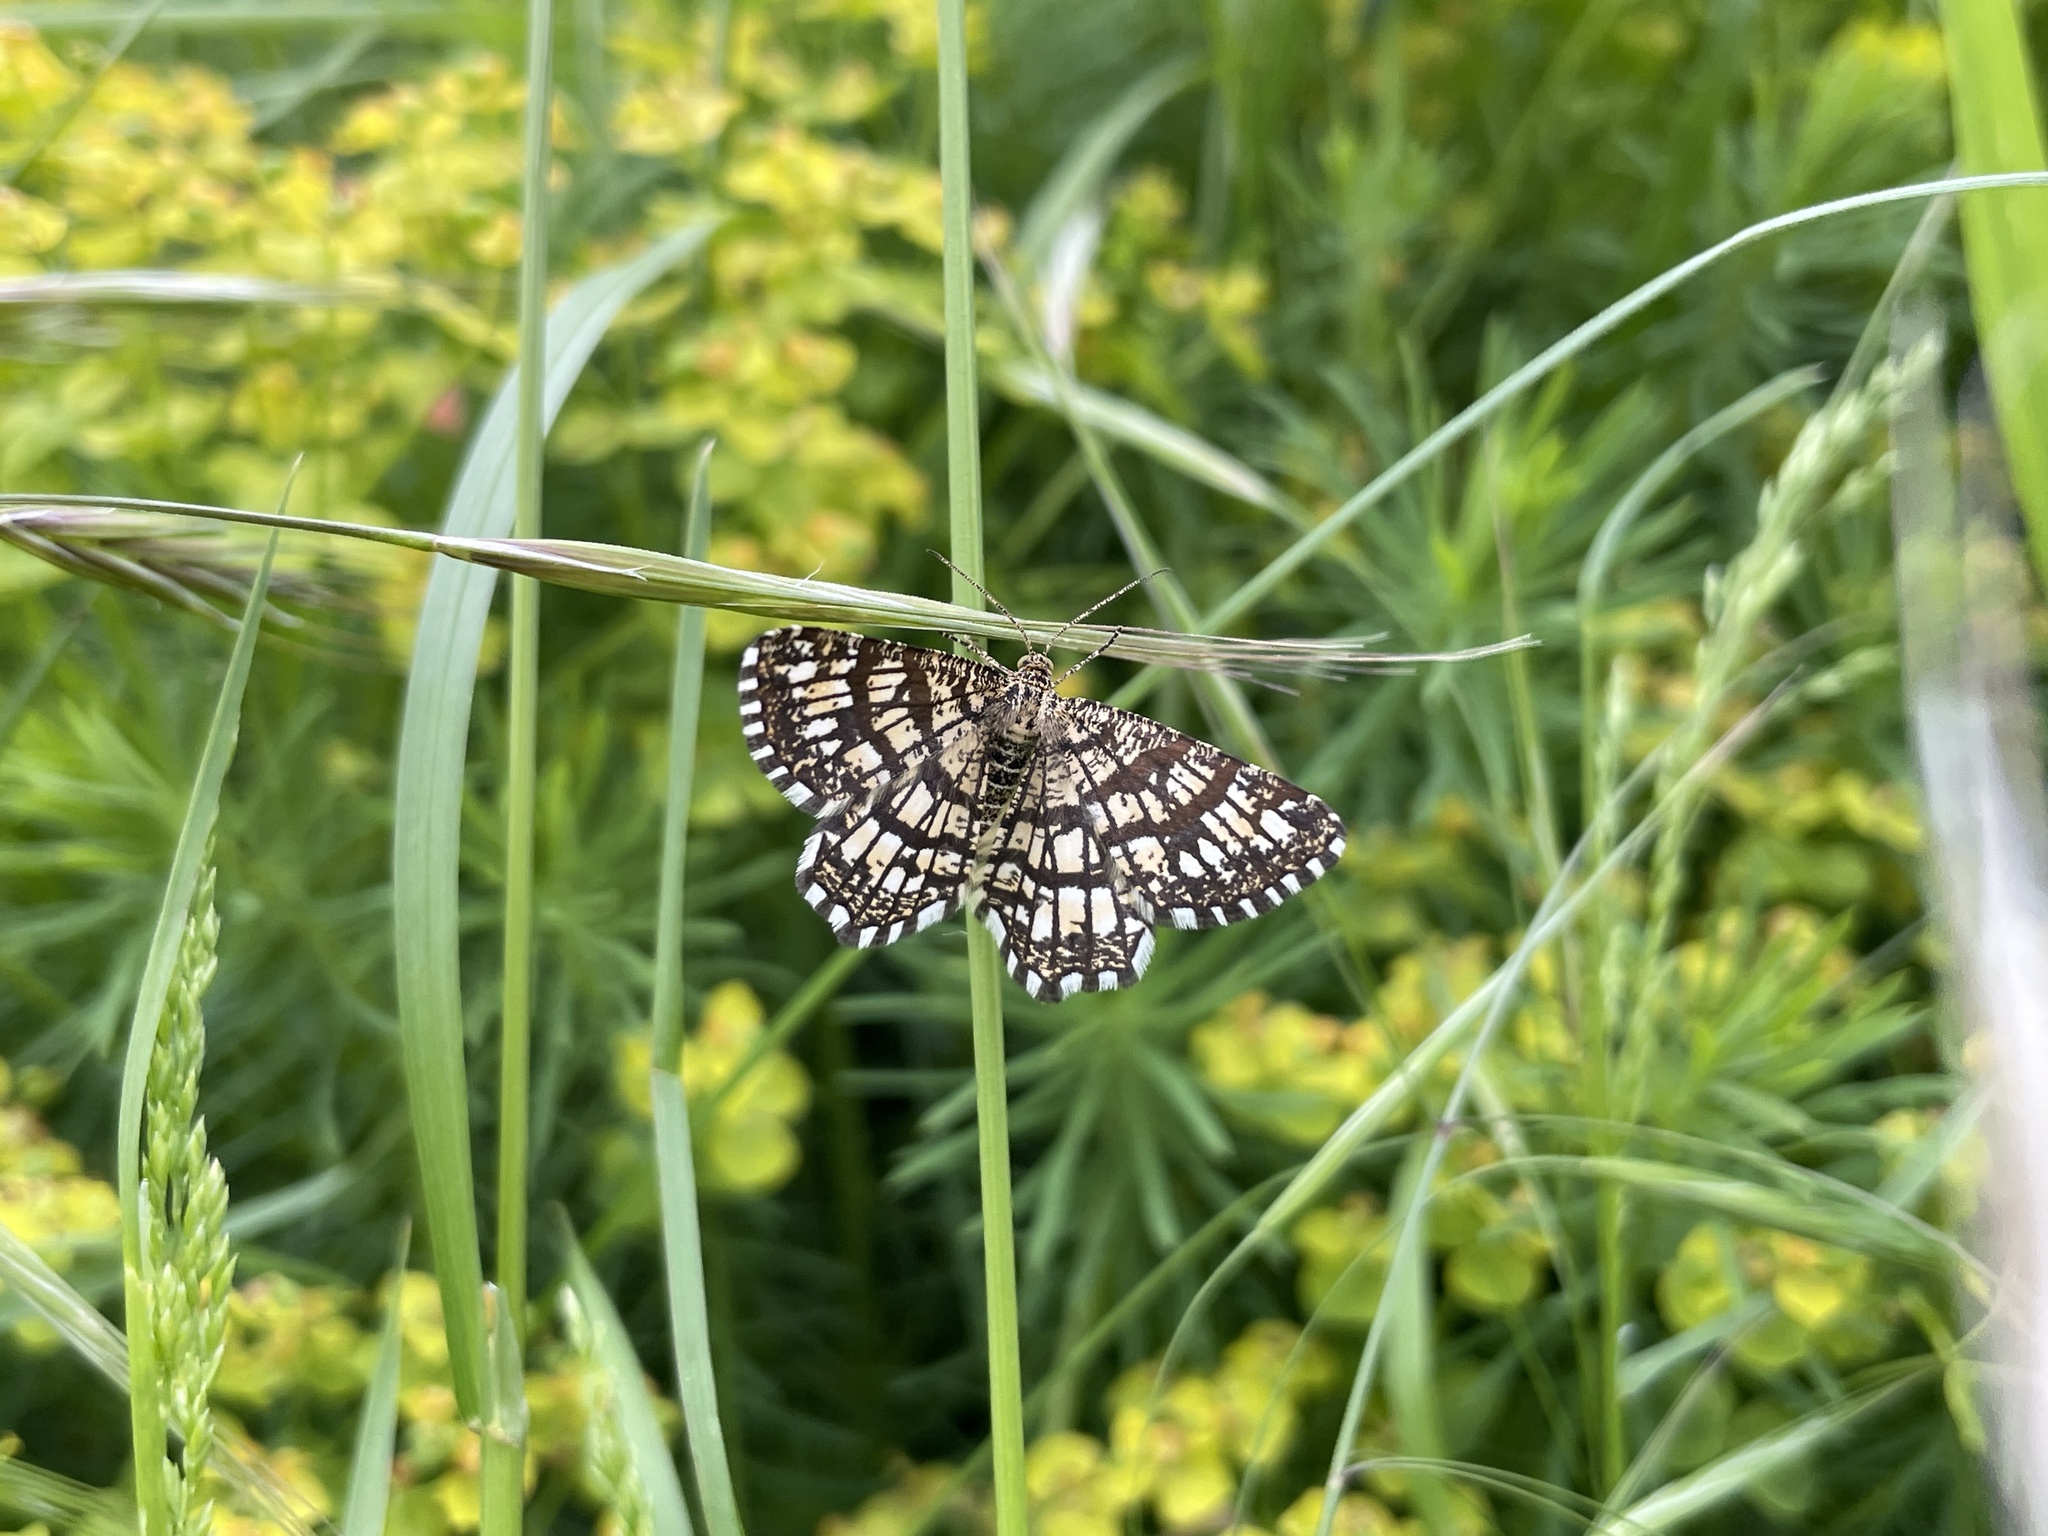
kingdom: Animalia
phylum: Arthropoda
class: Insecta
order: Lepidoptera
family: Geometridae
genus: Chiasmia
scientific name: Chiasmia clathrata
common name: Latticed heath
